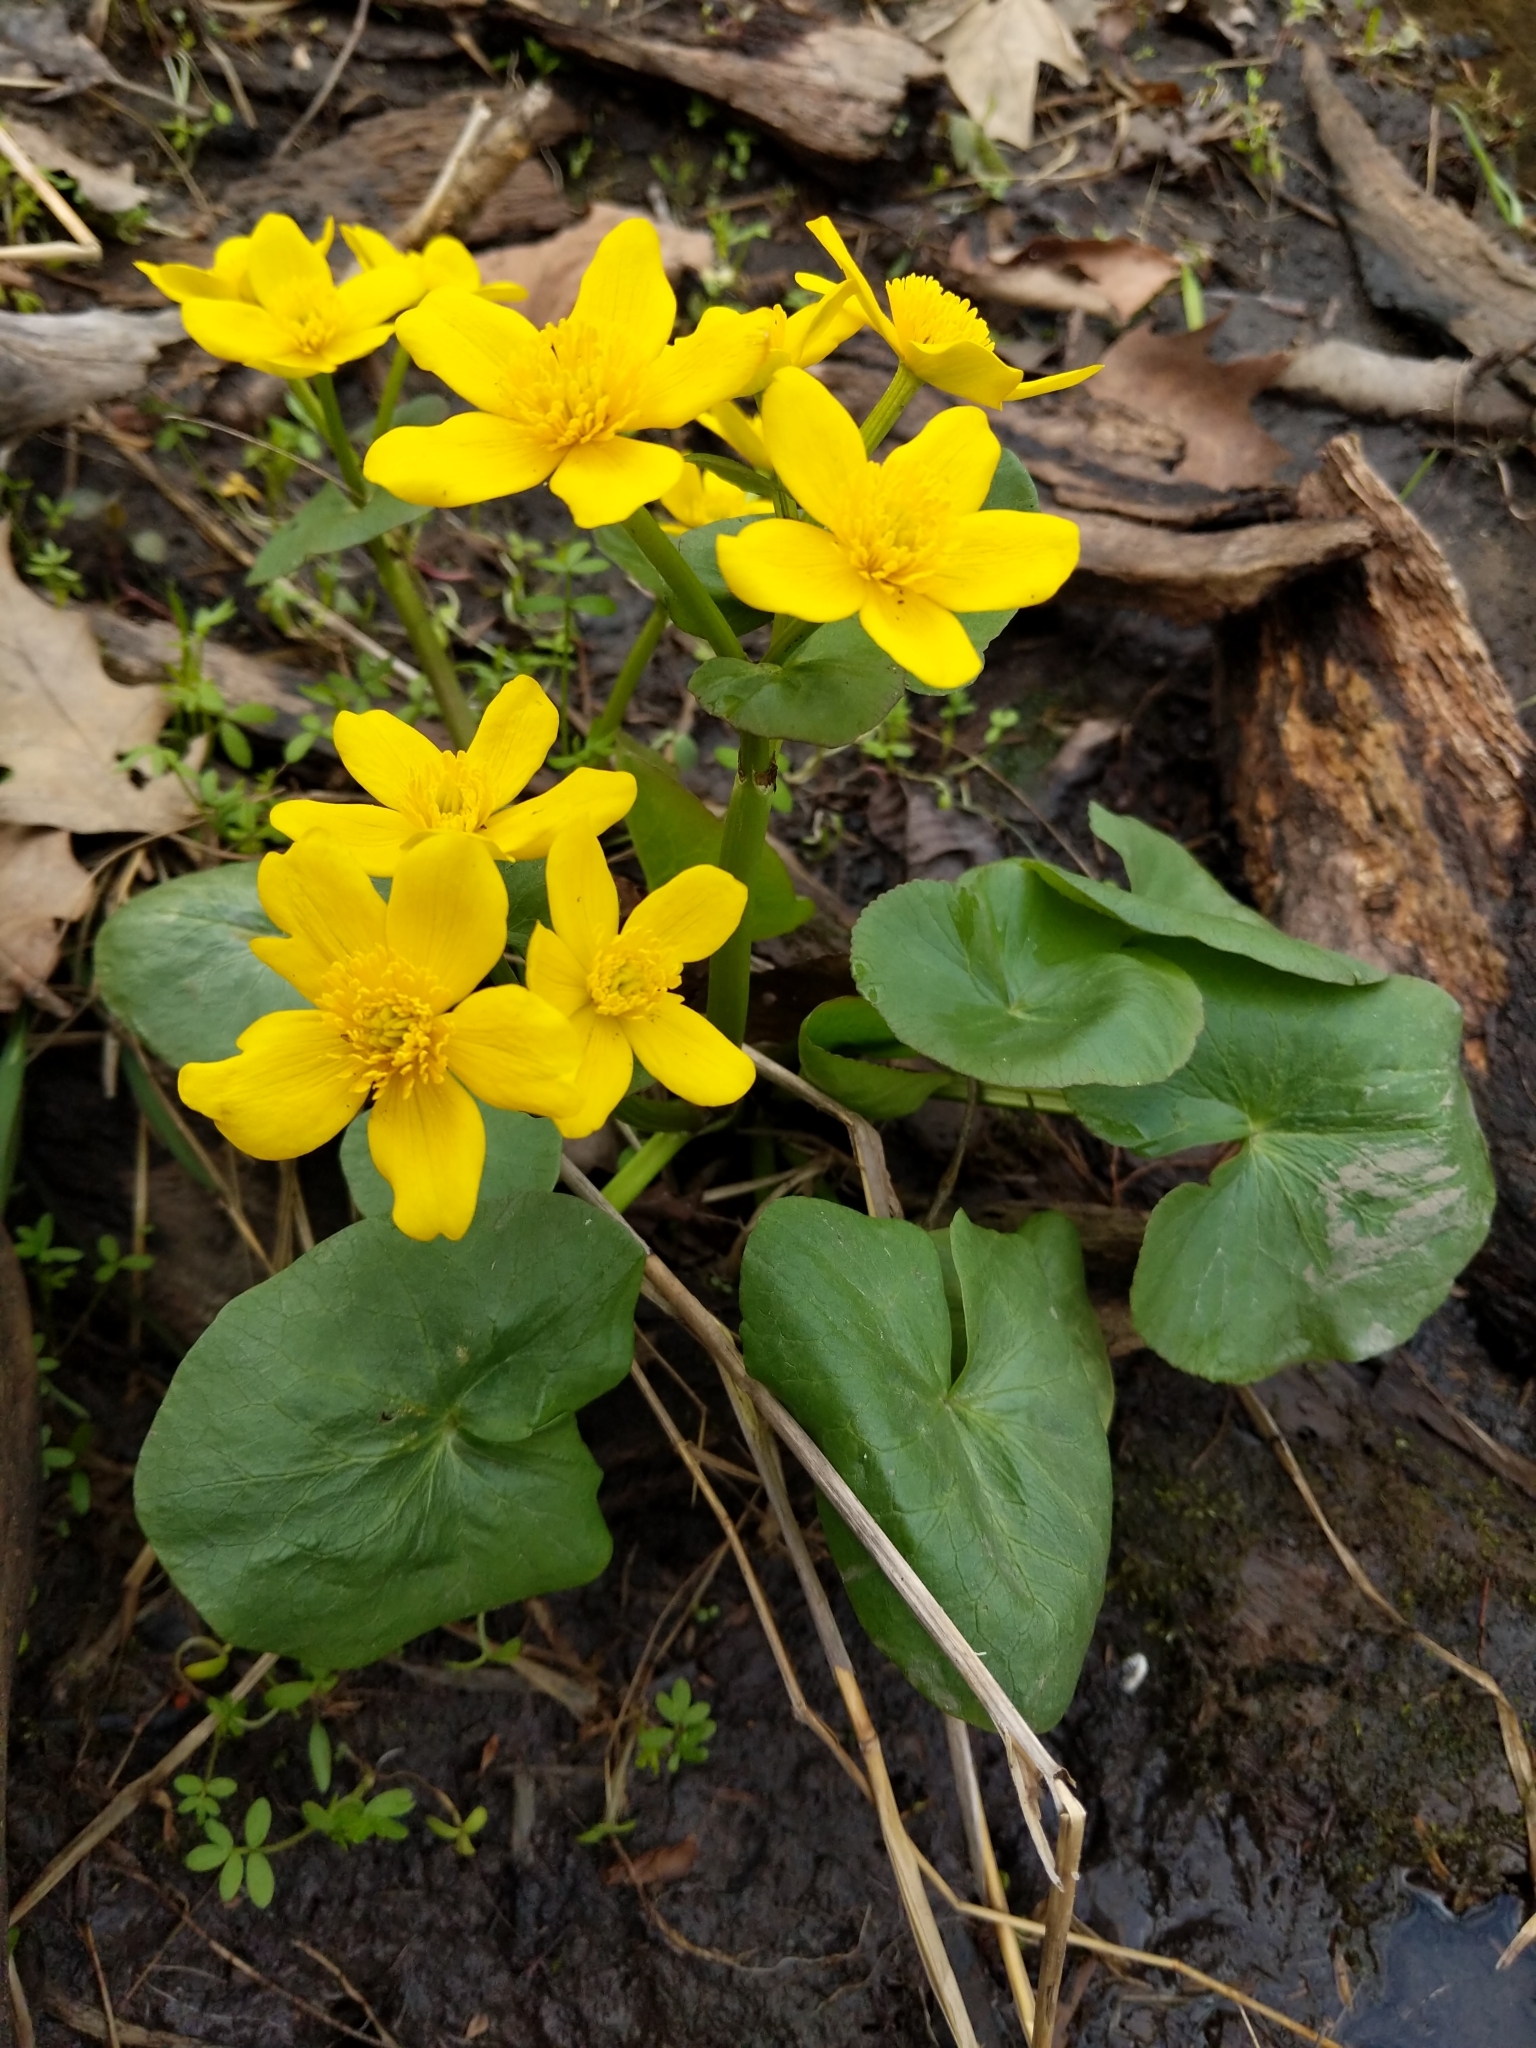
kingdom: Plantae
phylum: Tracheophyta
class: Magnoliopsida
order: Ranunculales
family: Ranunculaceae
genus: Caltha
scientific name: Caltha palustris
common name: Marsh marigold
